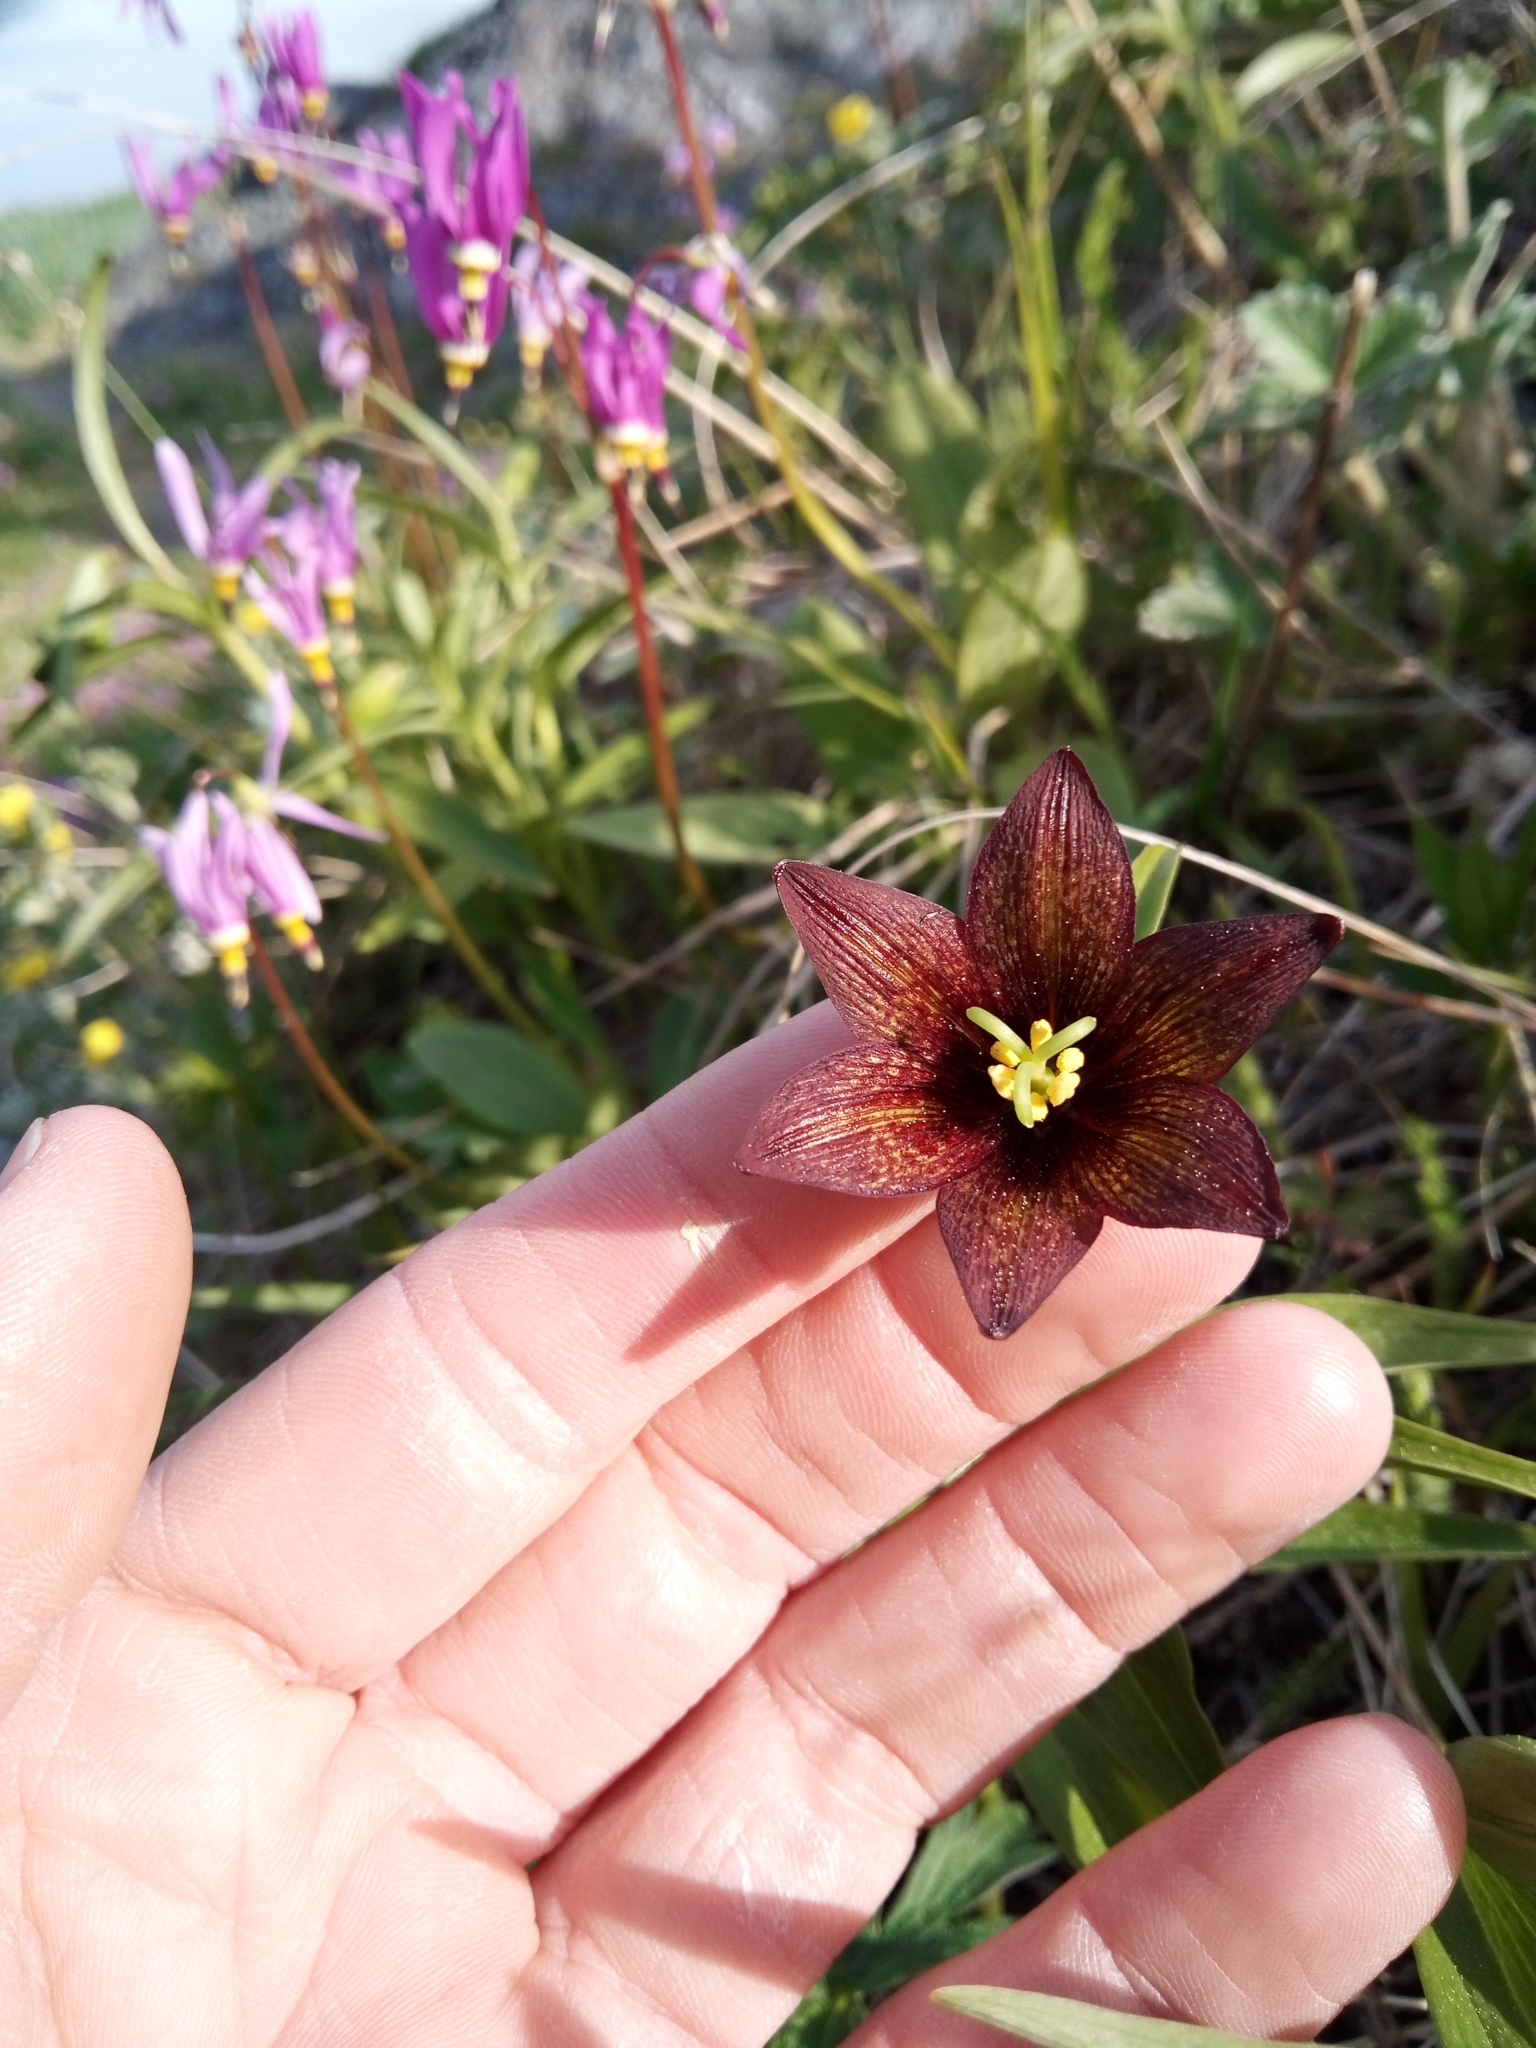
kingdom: Plantae
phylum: Tracheophyta
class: Liliopsida
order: Liliales
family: Liliaceae
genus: Fritillaria
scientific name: Fritillaria camschatcensis
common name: Kamchatka fritillary
